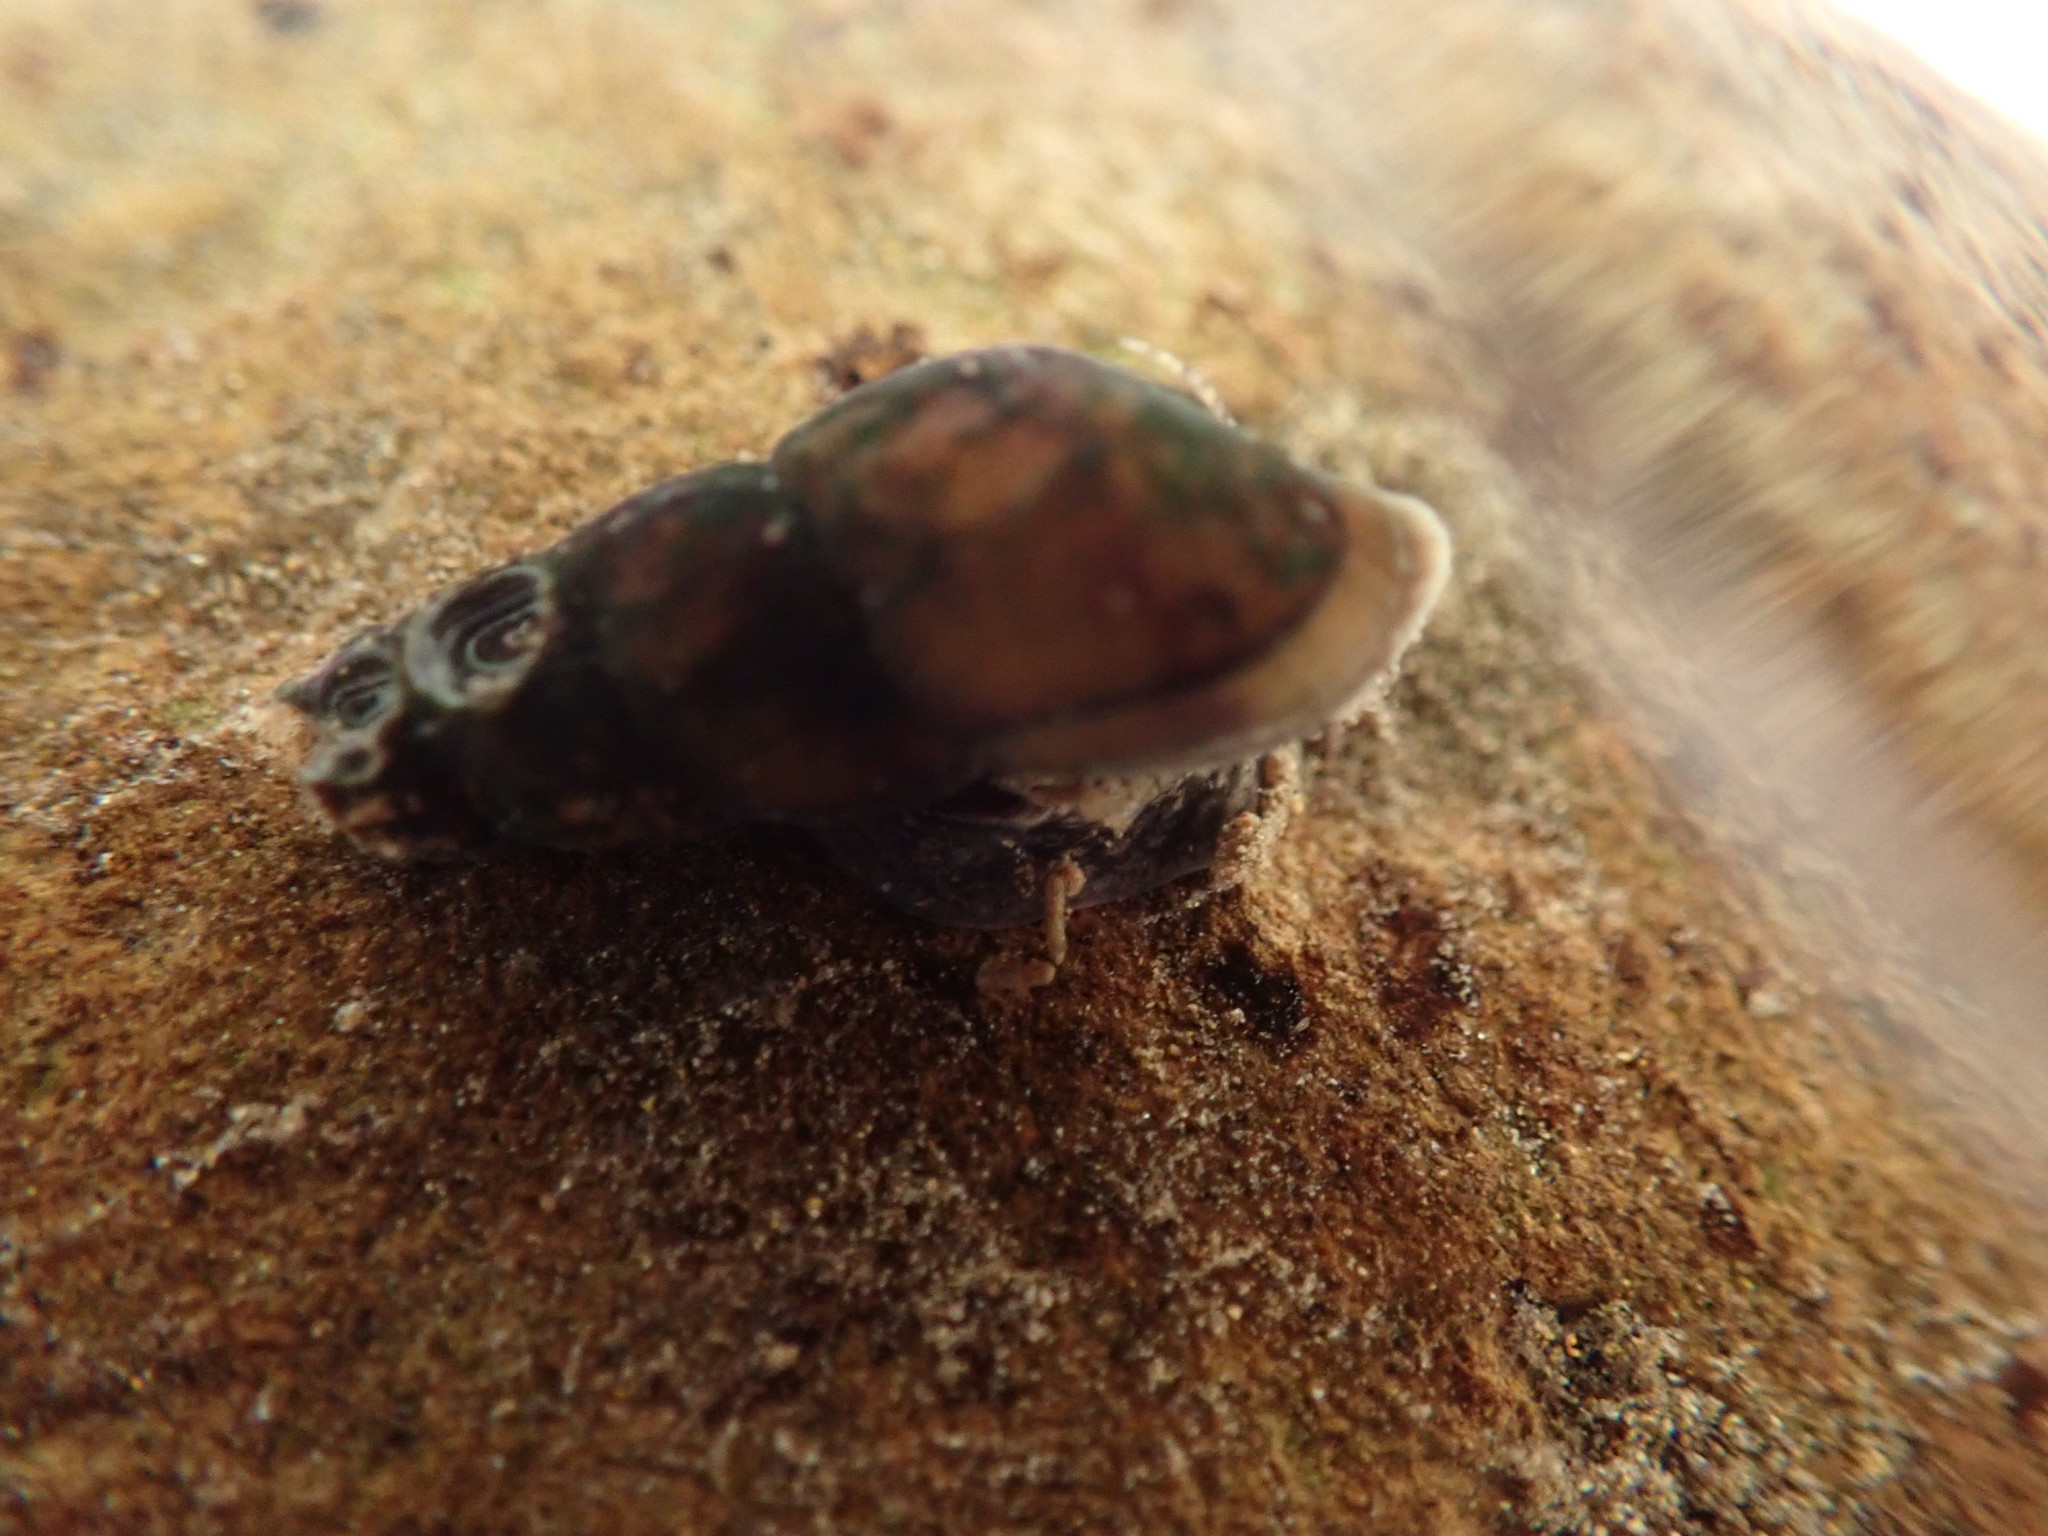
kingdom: Animalia
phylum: Mollusca
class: Gastropoda
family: Semisulcospiridae
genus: Juga
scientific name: Juga plicifera
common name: Pleated juga
